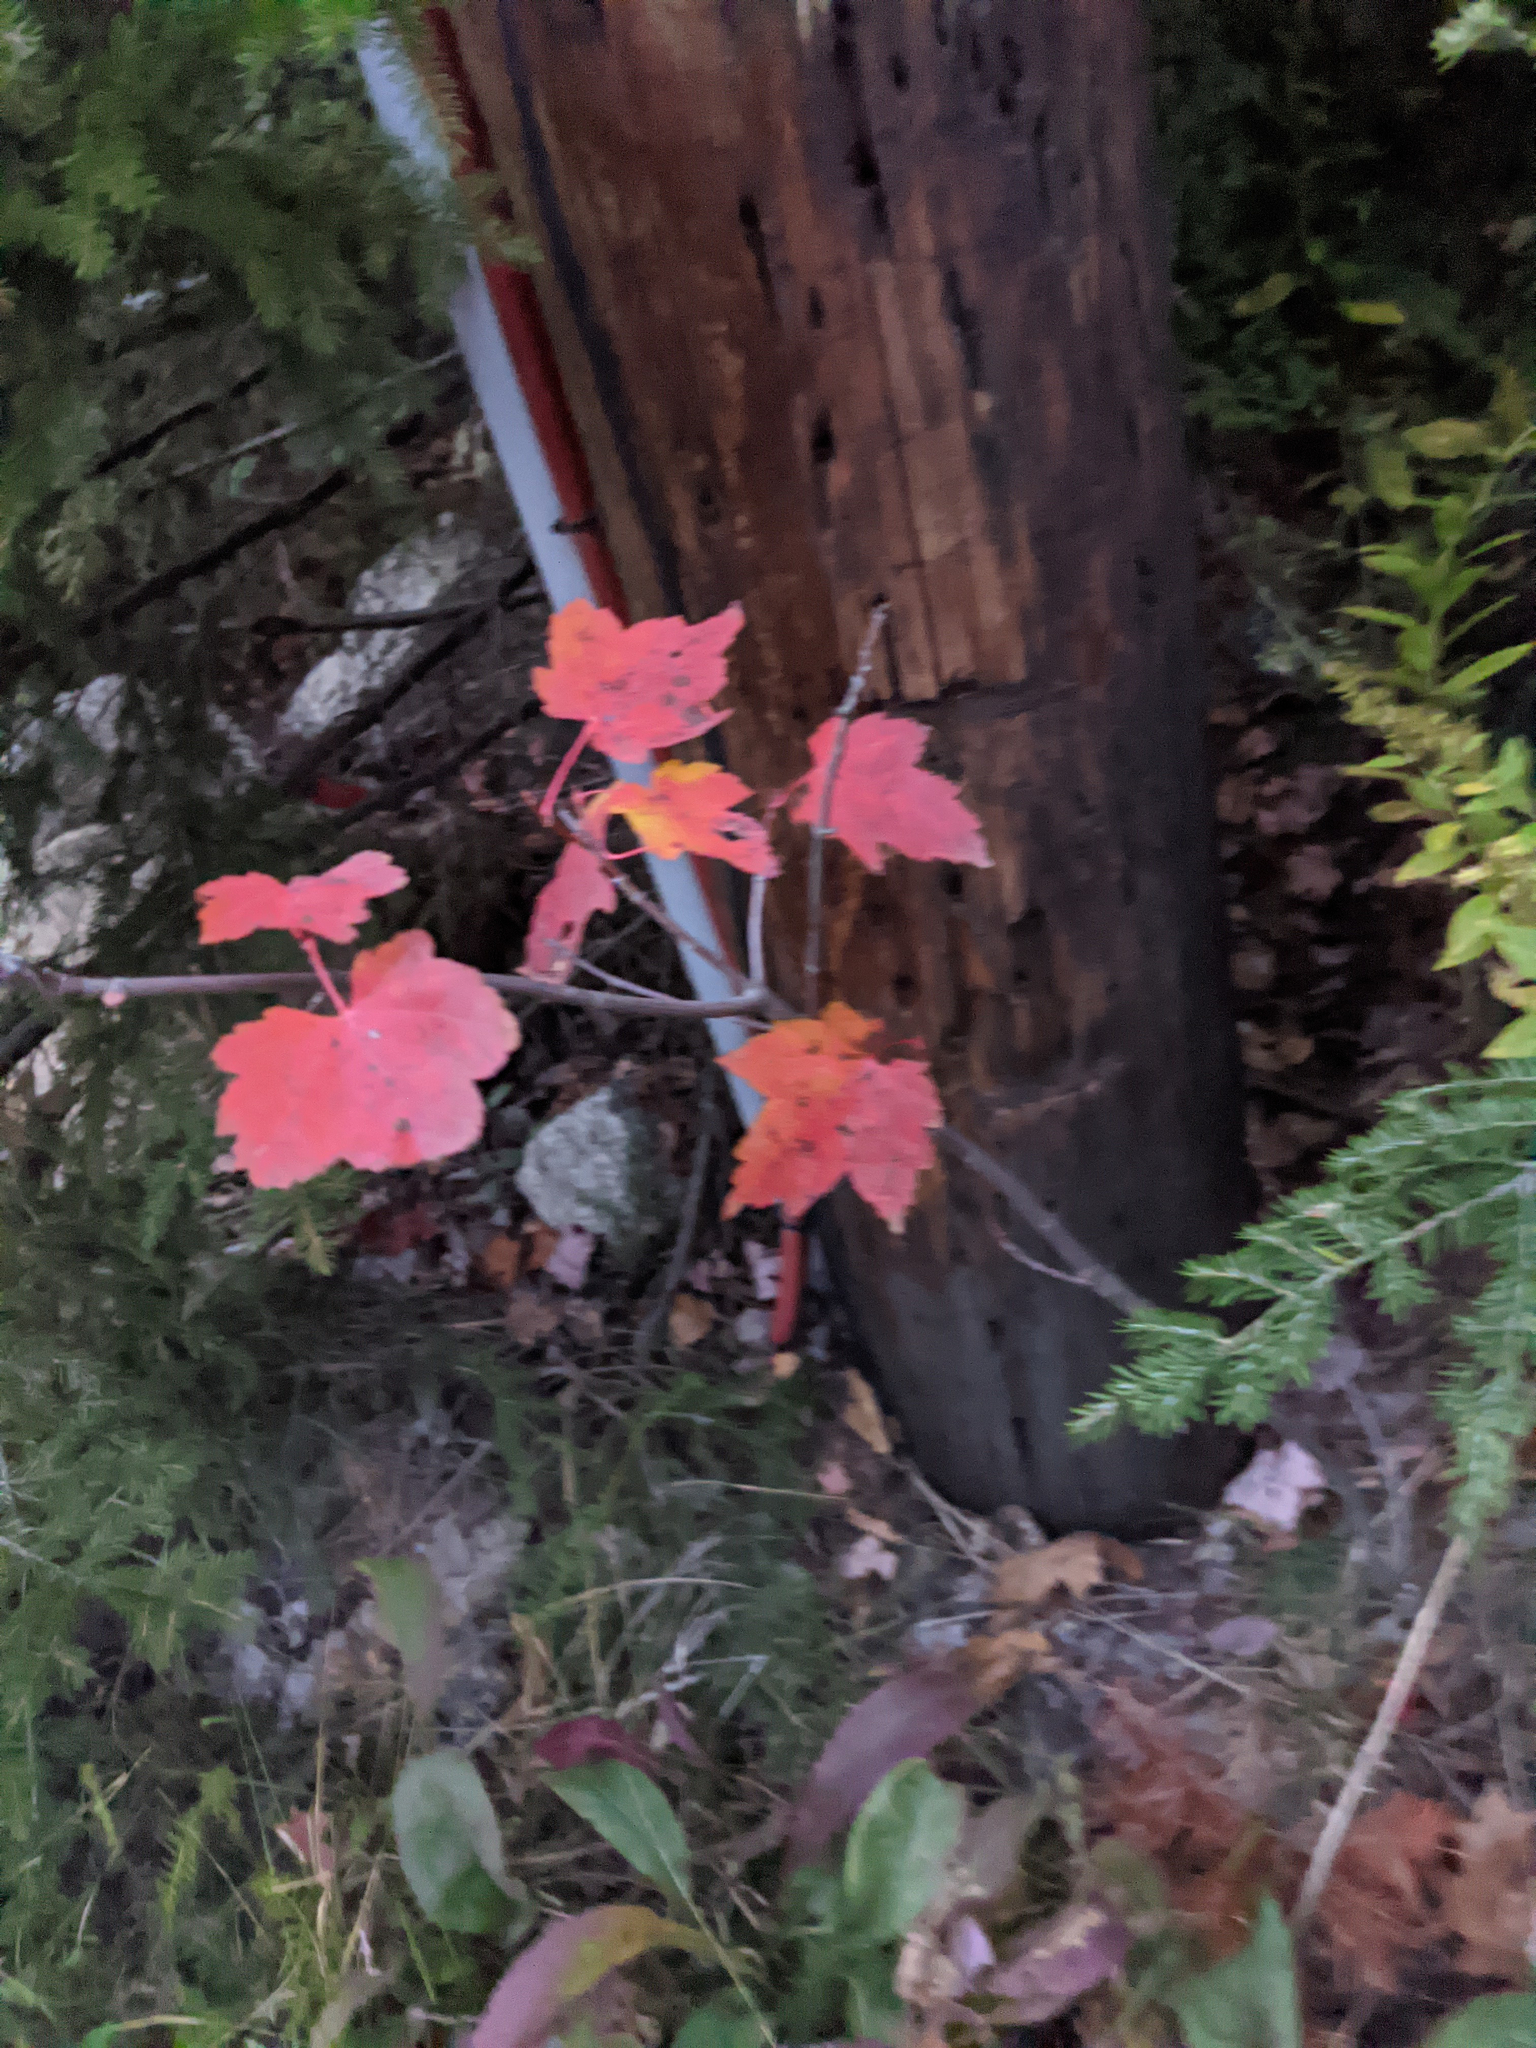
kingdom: Plantae
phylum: Tracheophyta
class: Magnoliopsida
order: Sapindales
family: Sapindaceae
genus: Acer
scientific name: Acer rubrum
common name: Red maple
